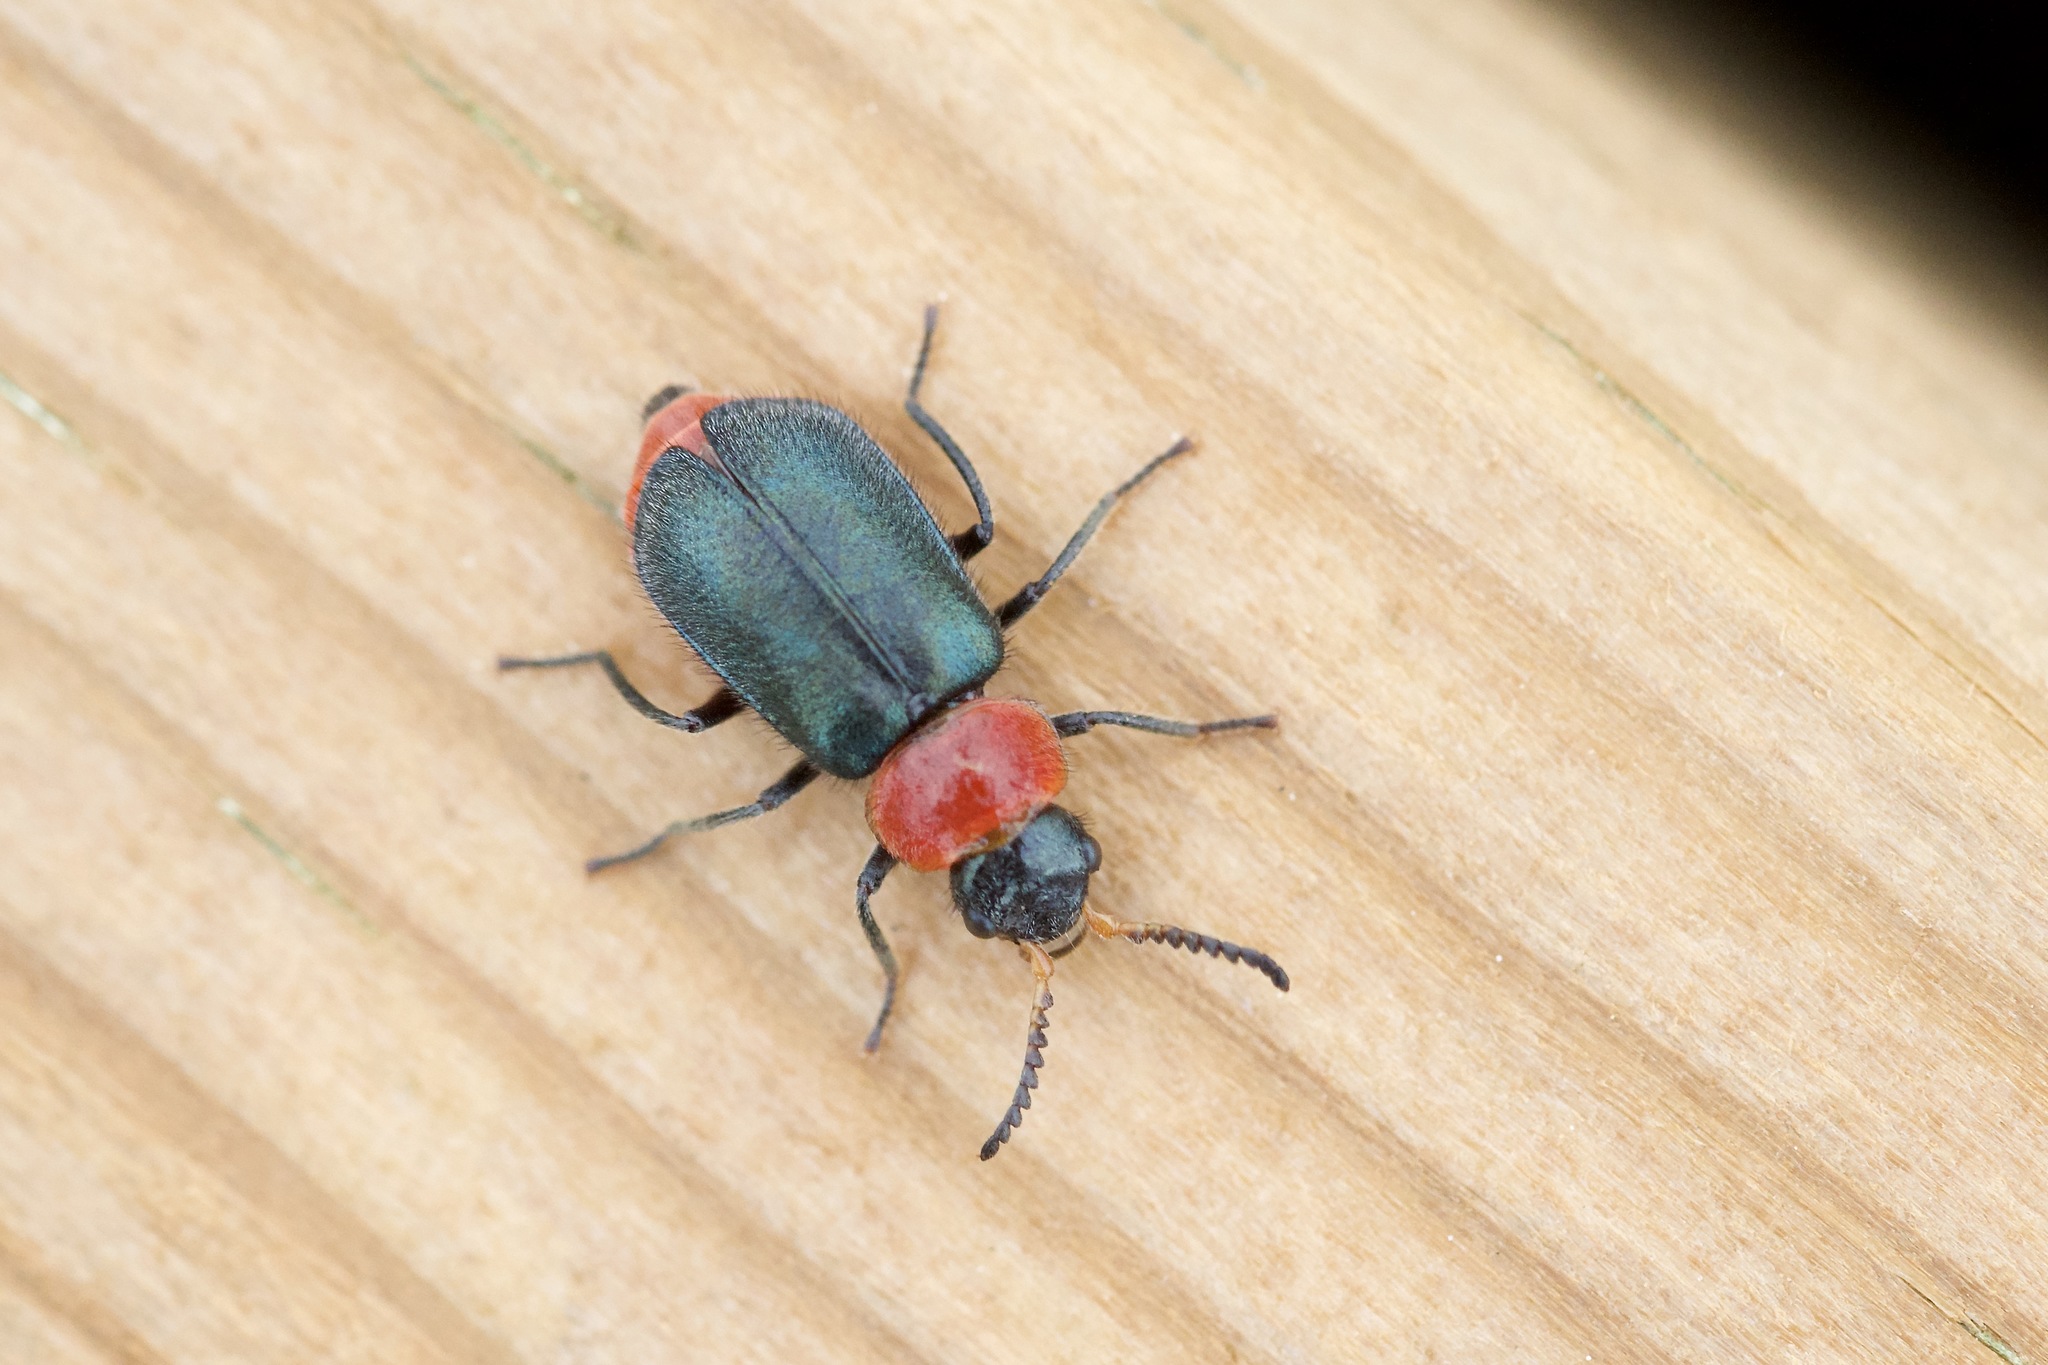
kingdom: Animalia
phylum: Arthropoda
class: Insecta
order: Coleoptera
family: Melyridae
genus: Collops
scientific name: Collops tricolor
